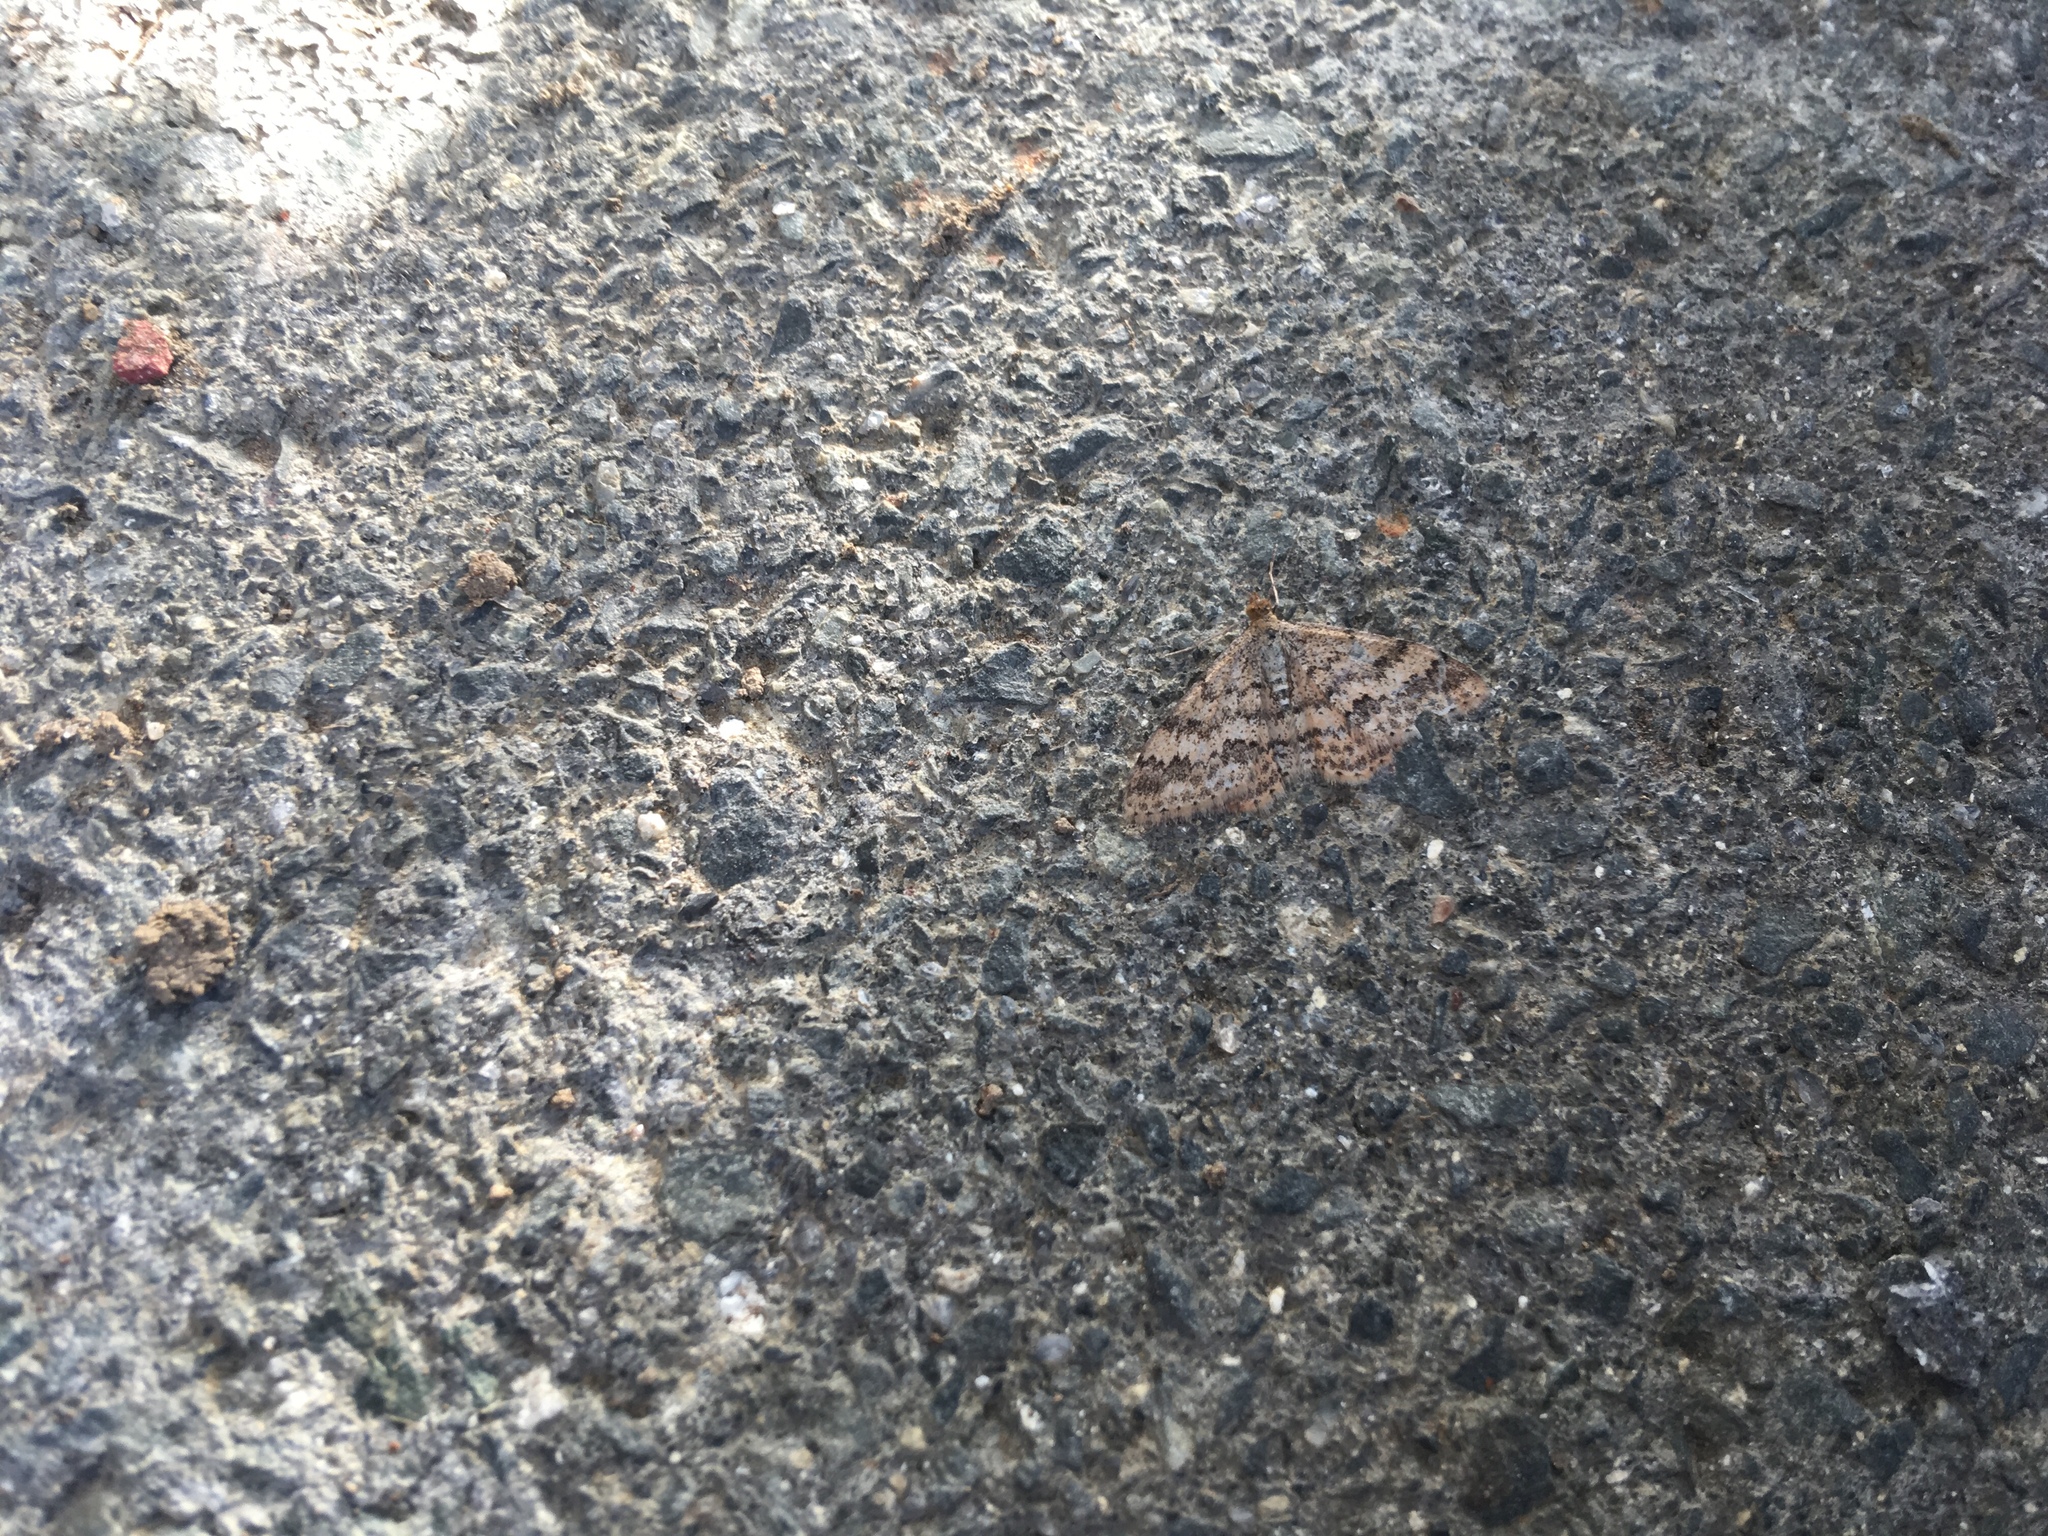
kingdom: Animalia
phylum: Arthropoda
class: Insecta
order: Lepidoptera
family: Geometridae
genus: Scopula
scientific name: Scopula rubraria
